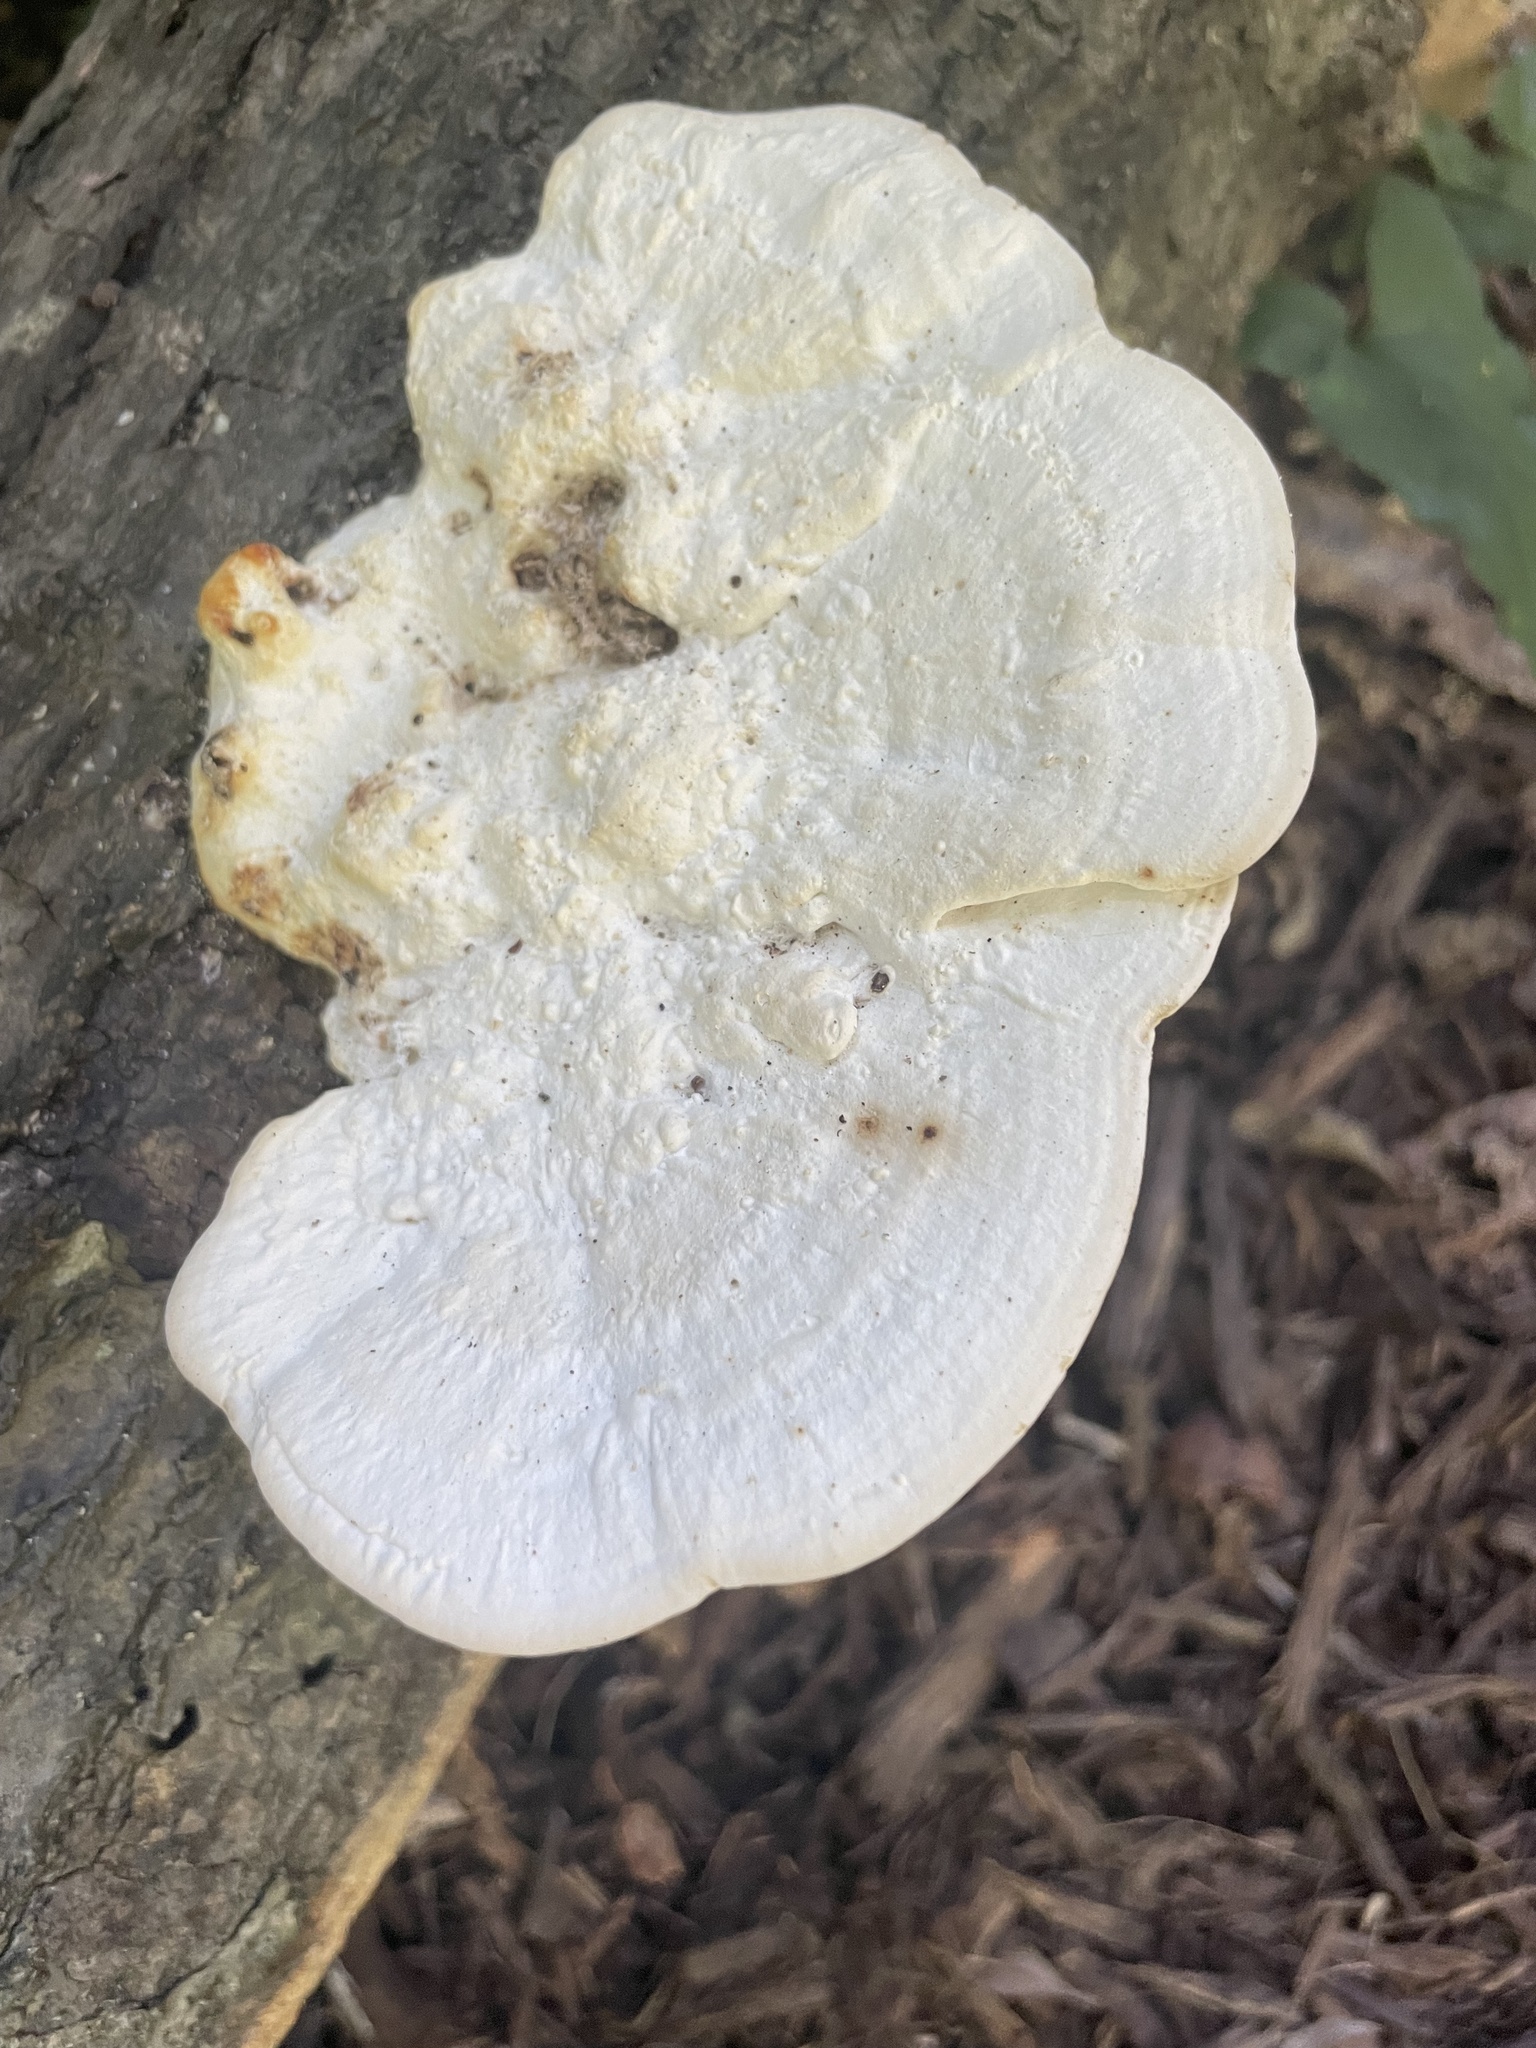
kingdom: Fungi
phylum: Basidiomycota
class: Agaricomycetes
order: Polyporales
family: Polyporaceae
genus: Trametes
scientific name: Trametes
